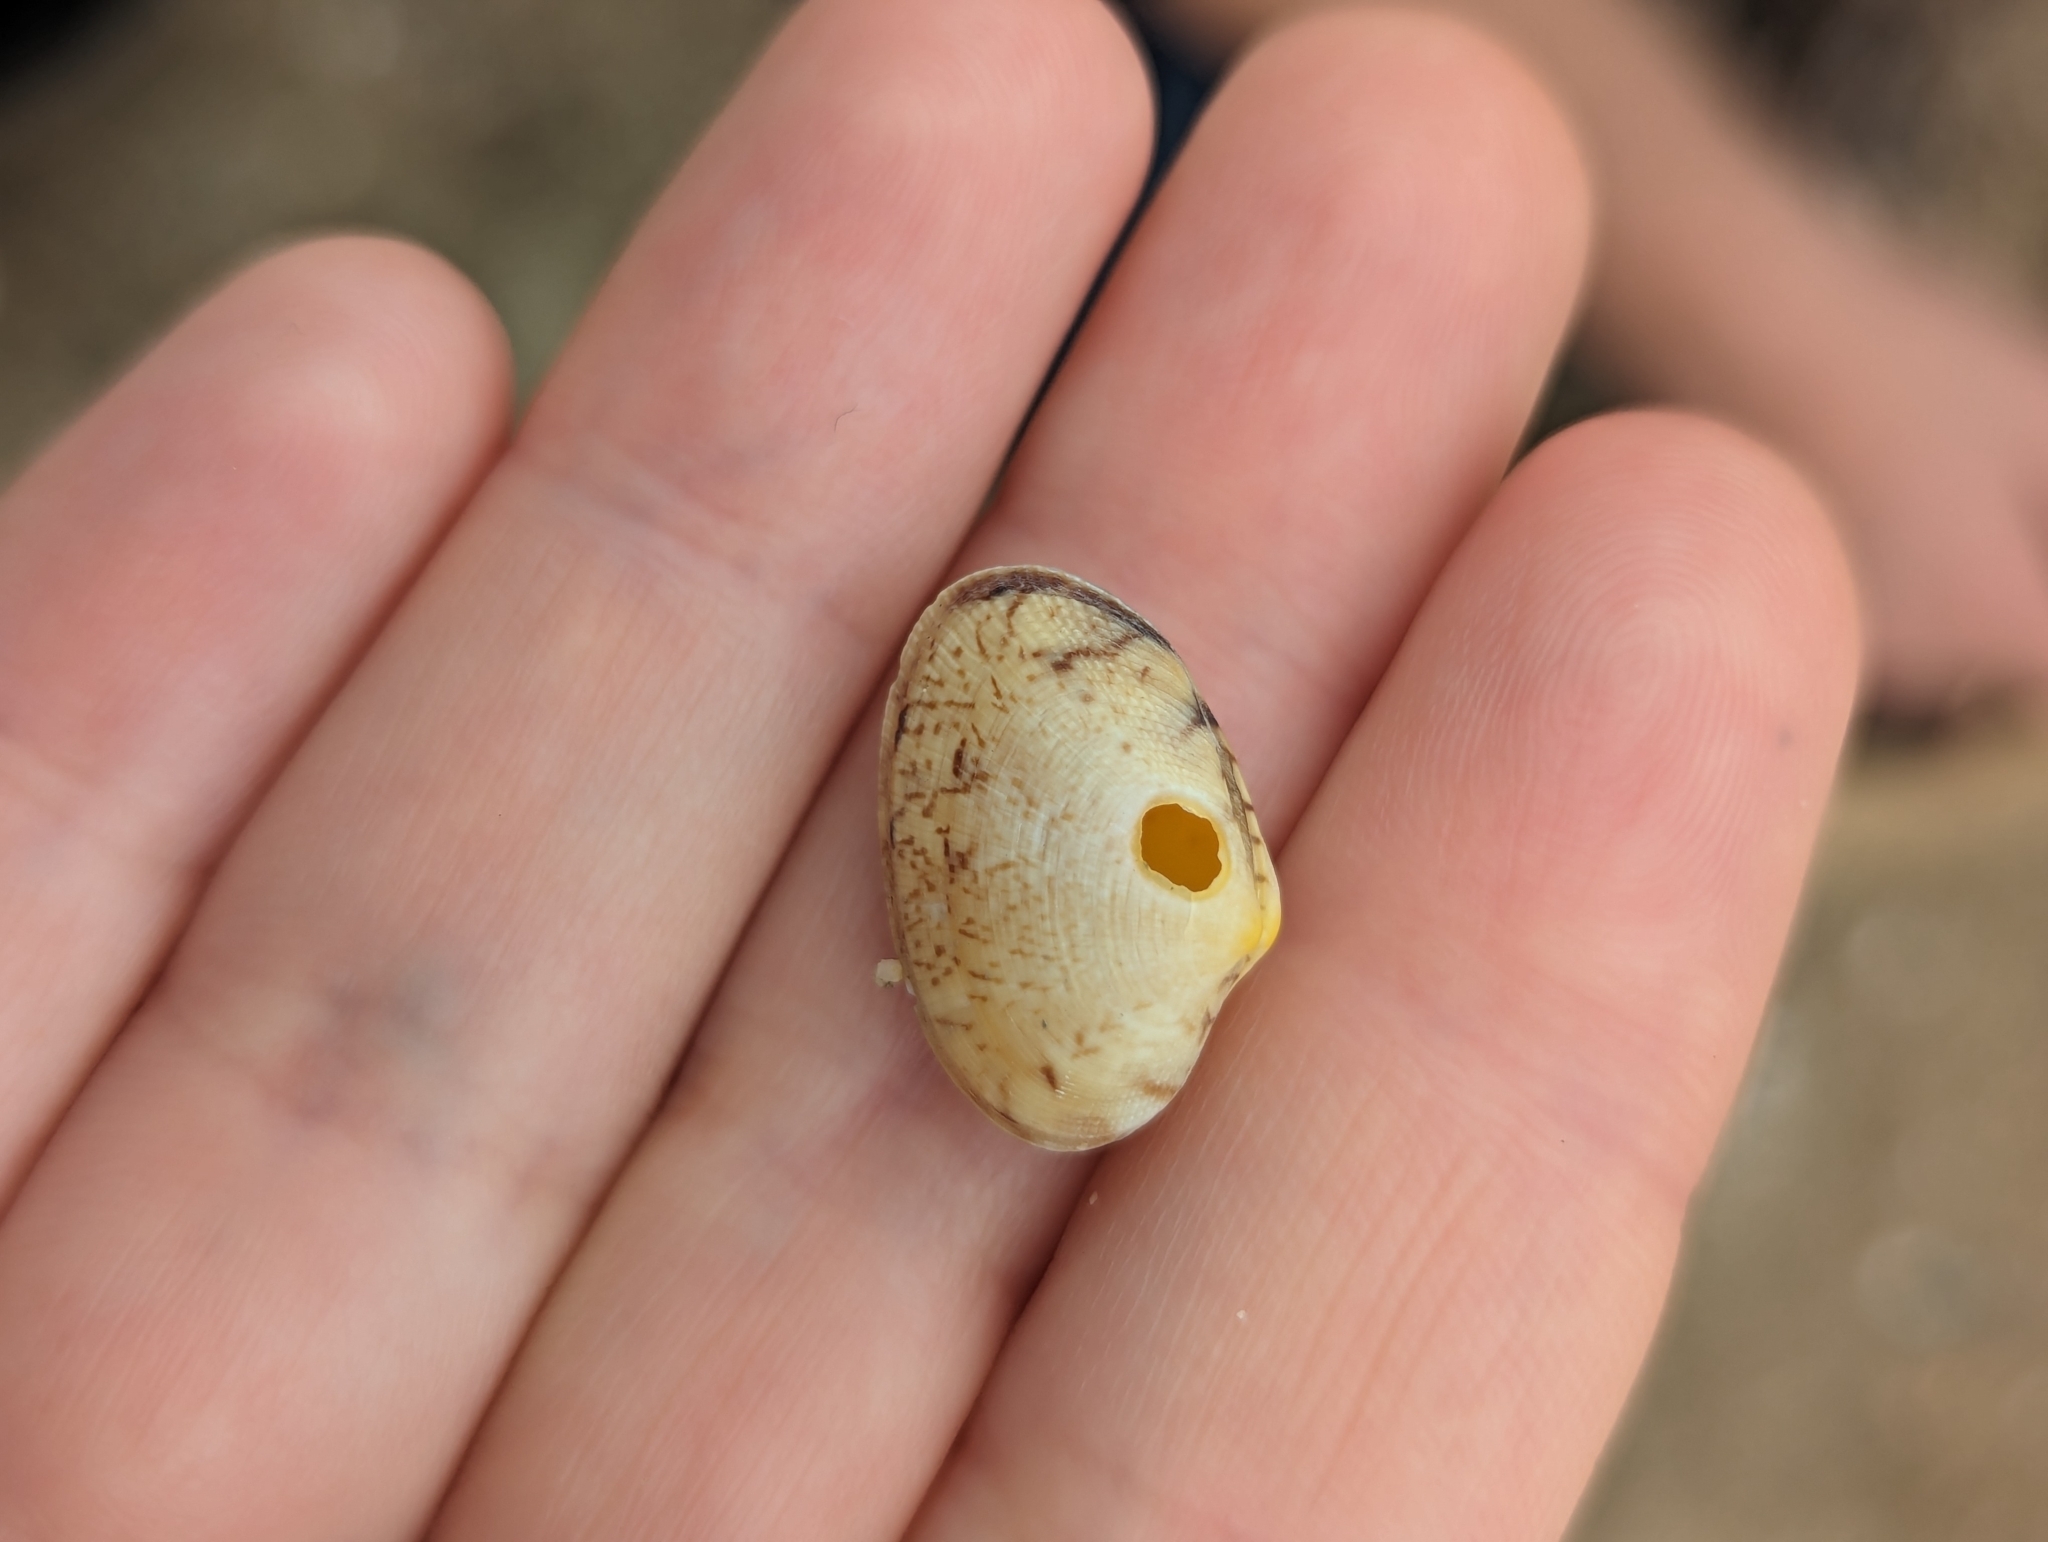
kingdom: Animalia
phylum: Mollusca
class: Bivalvia
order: Venerida
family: Veneridae
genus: Ruditapes
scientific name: Ruditapes philippinarum
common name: Manila clam
